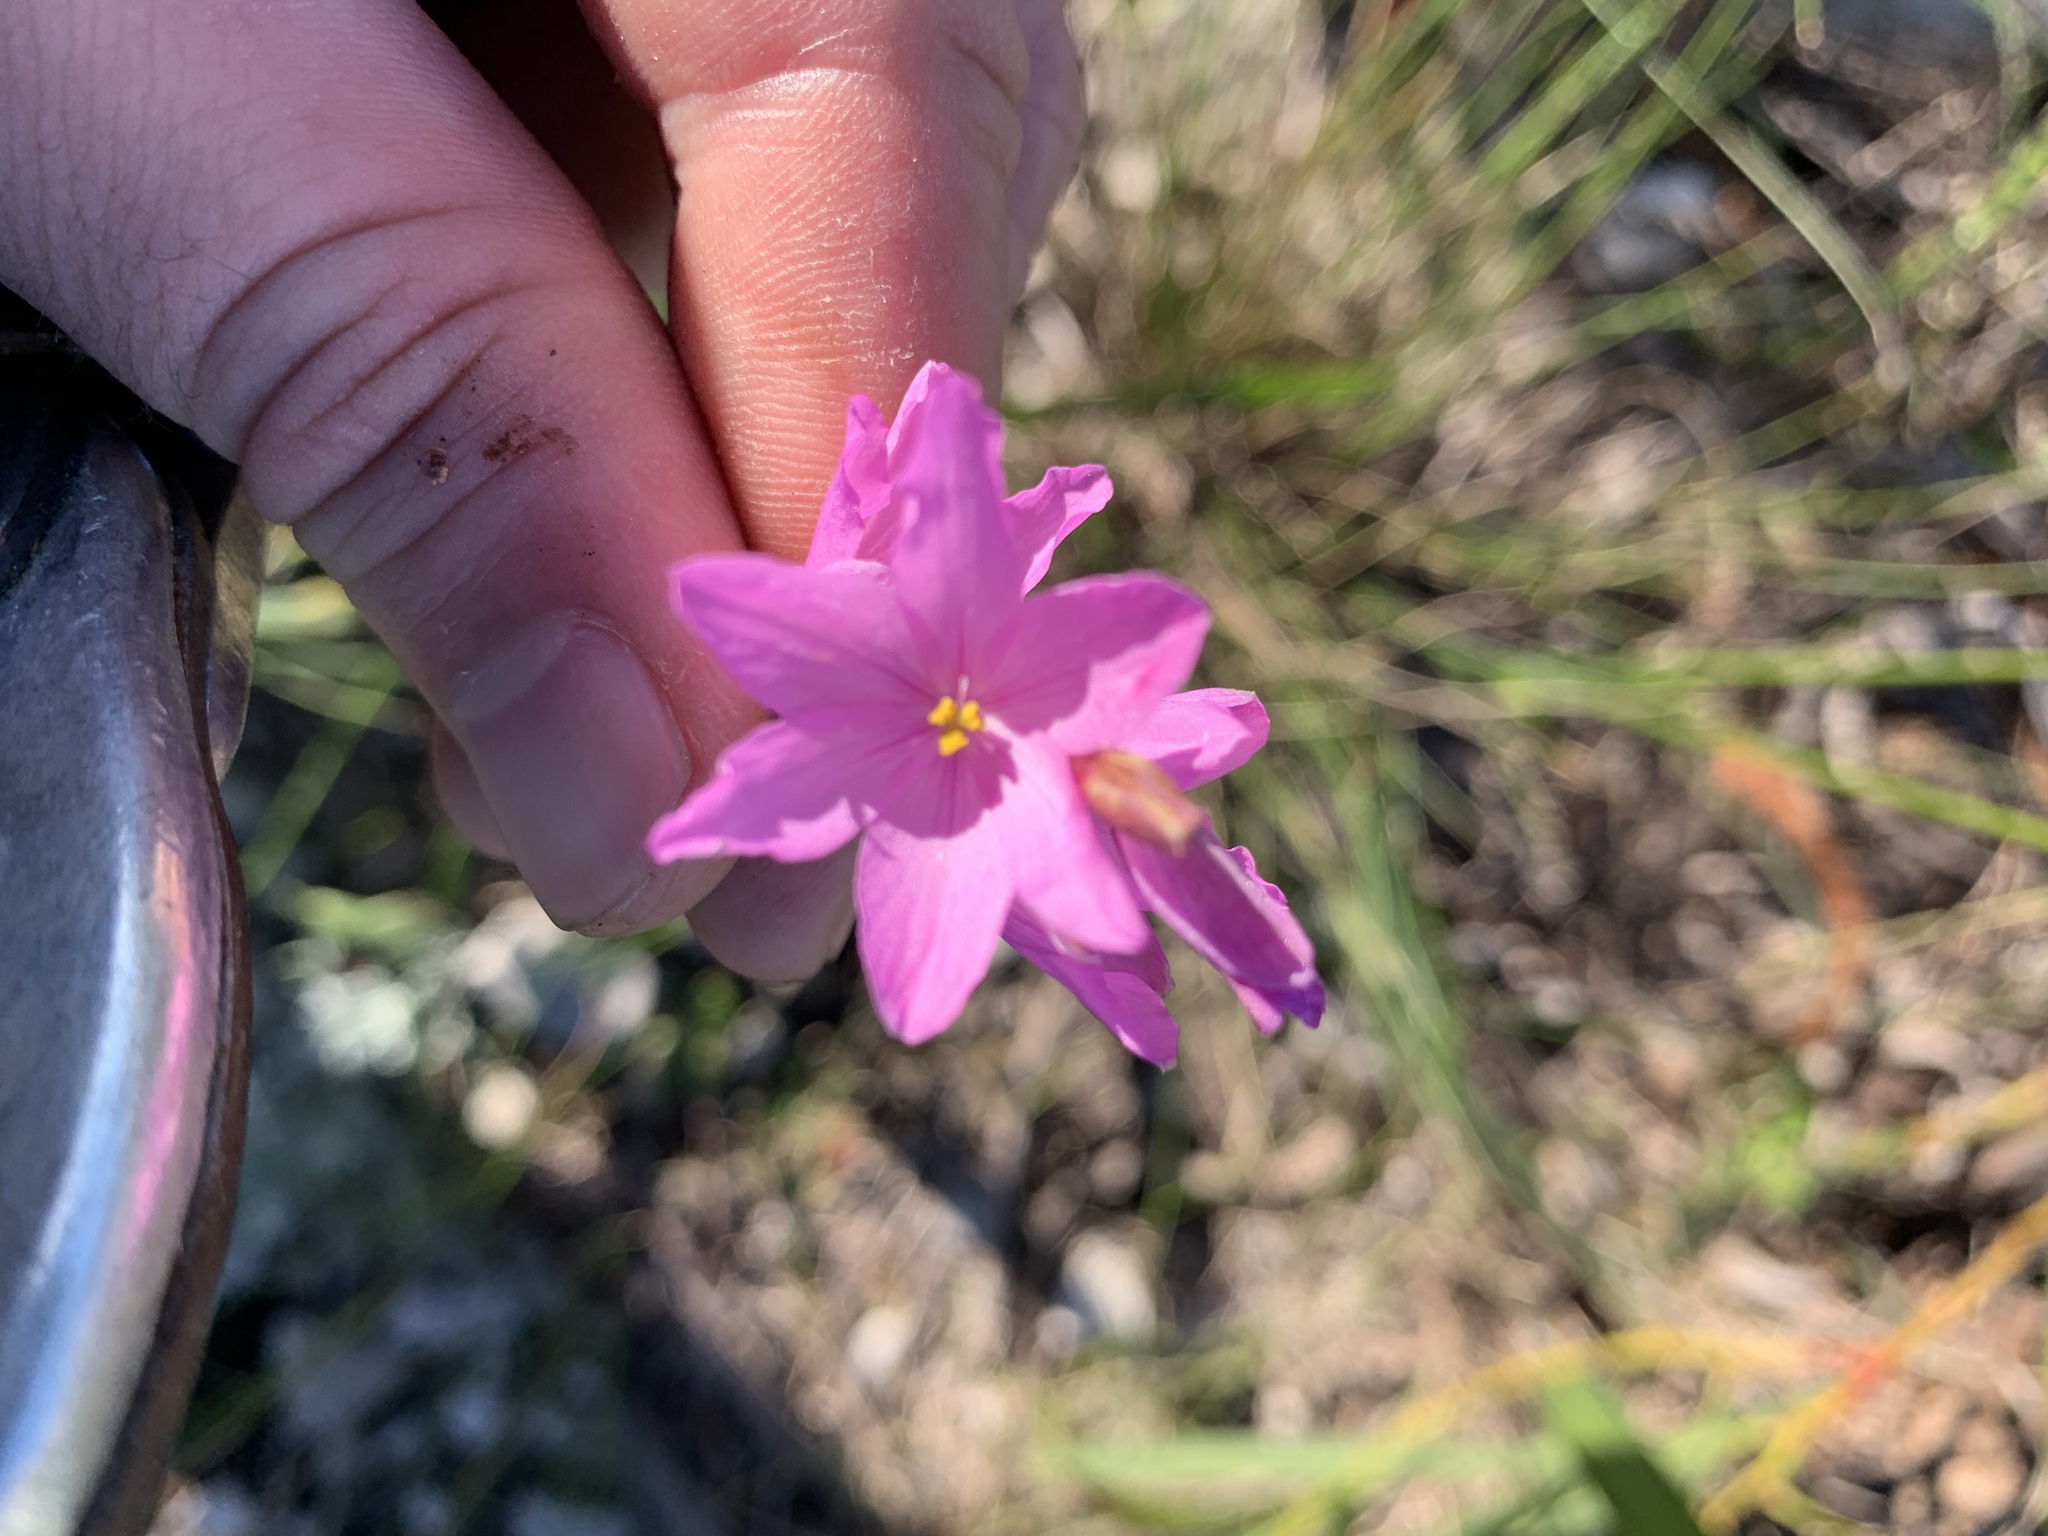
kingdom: Plantae
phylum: Tracheophyta
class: Liliopsida
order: Asparagales
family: Iridaceae
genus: Ixia
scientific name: Ixia micrandra
